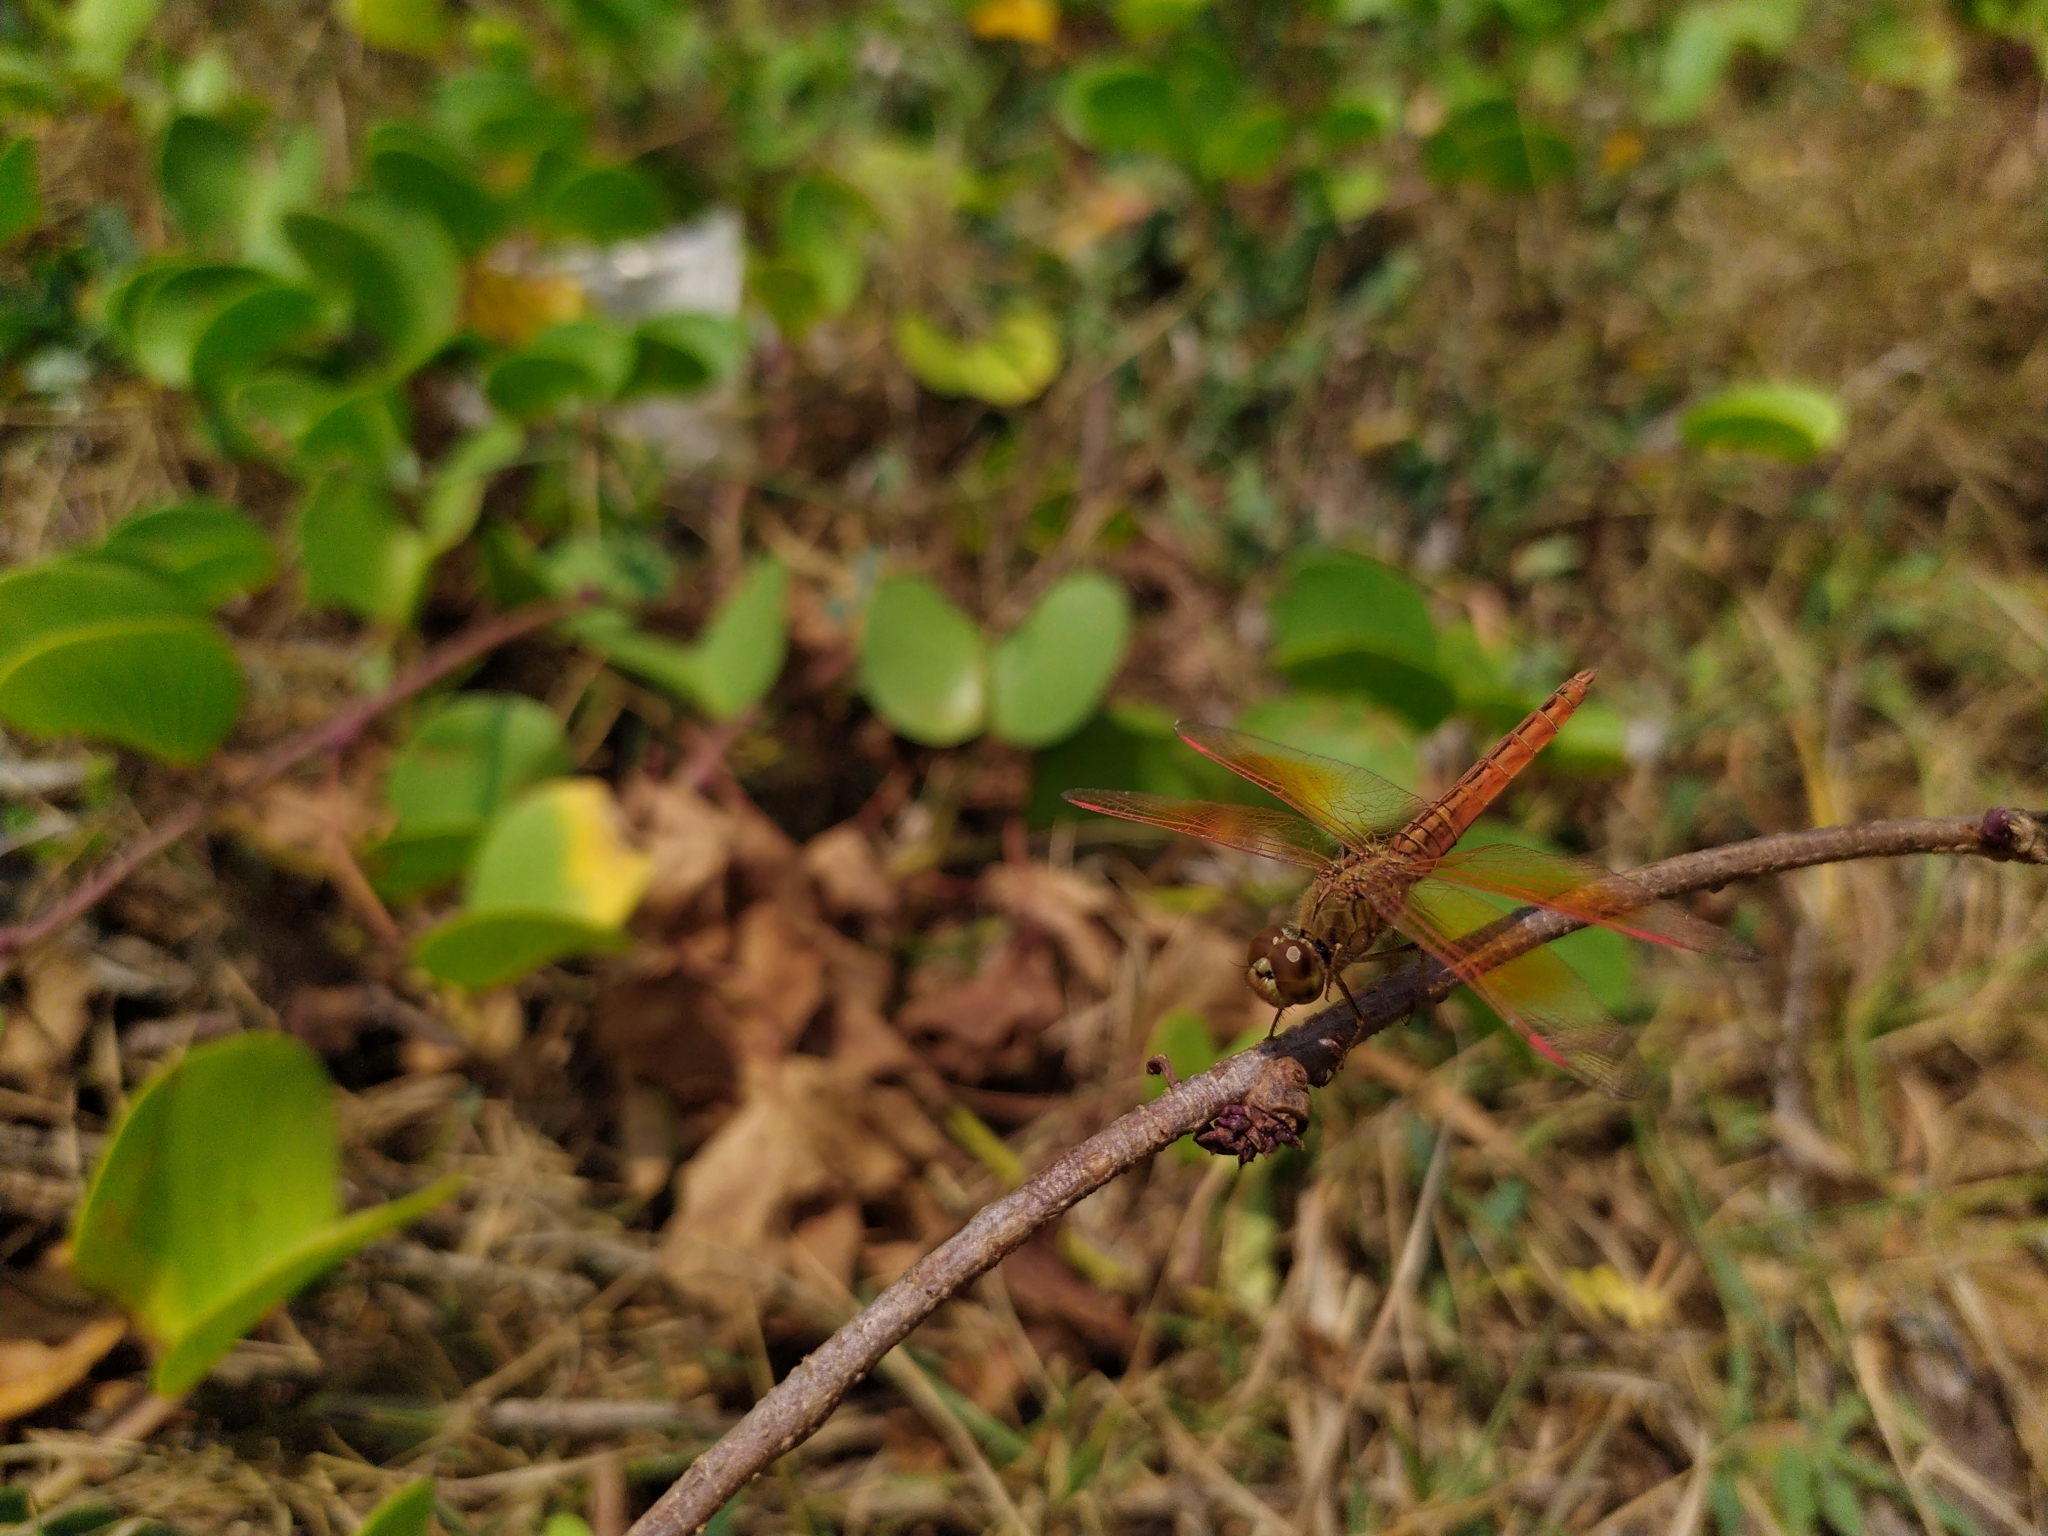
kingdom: Animalia
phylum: Arthropoda
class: Insecta
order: Odonata
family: Libellulidae
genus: Brachythemis
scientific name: Brachythemis contaminata
